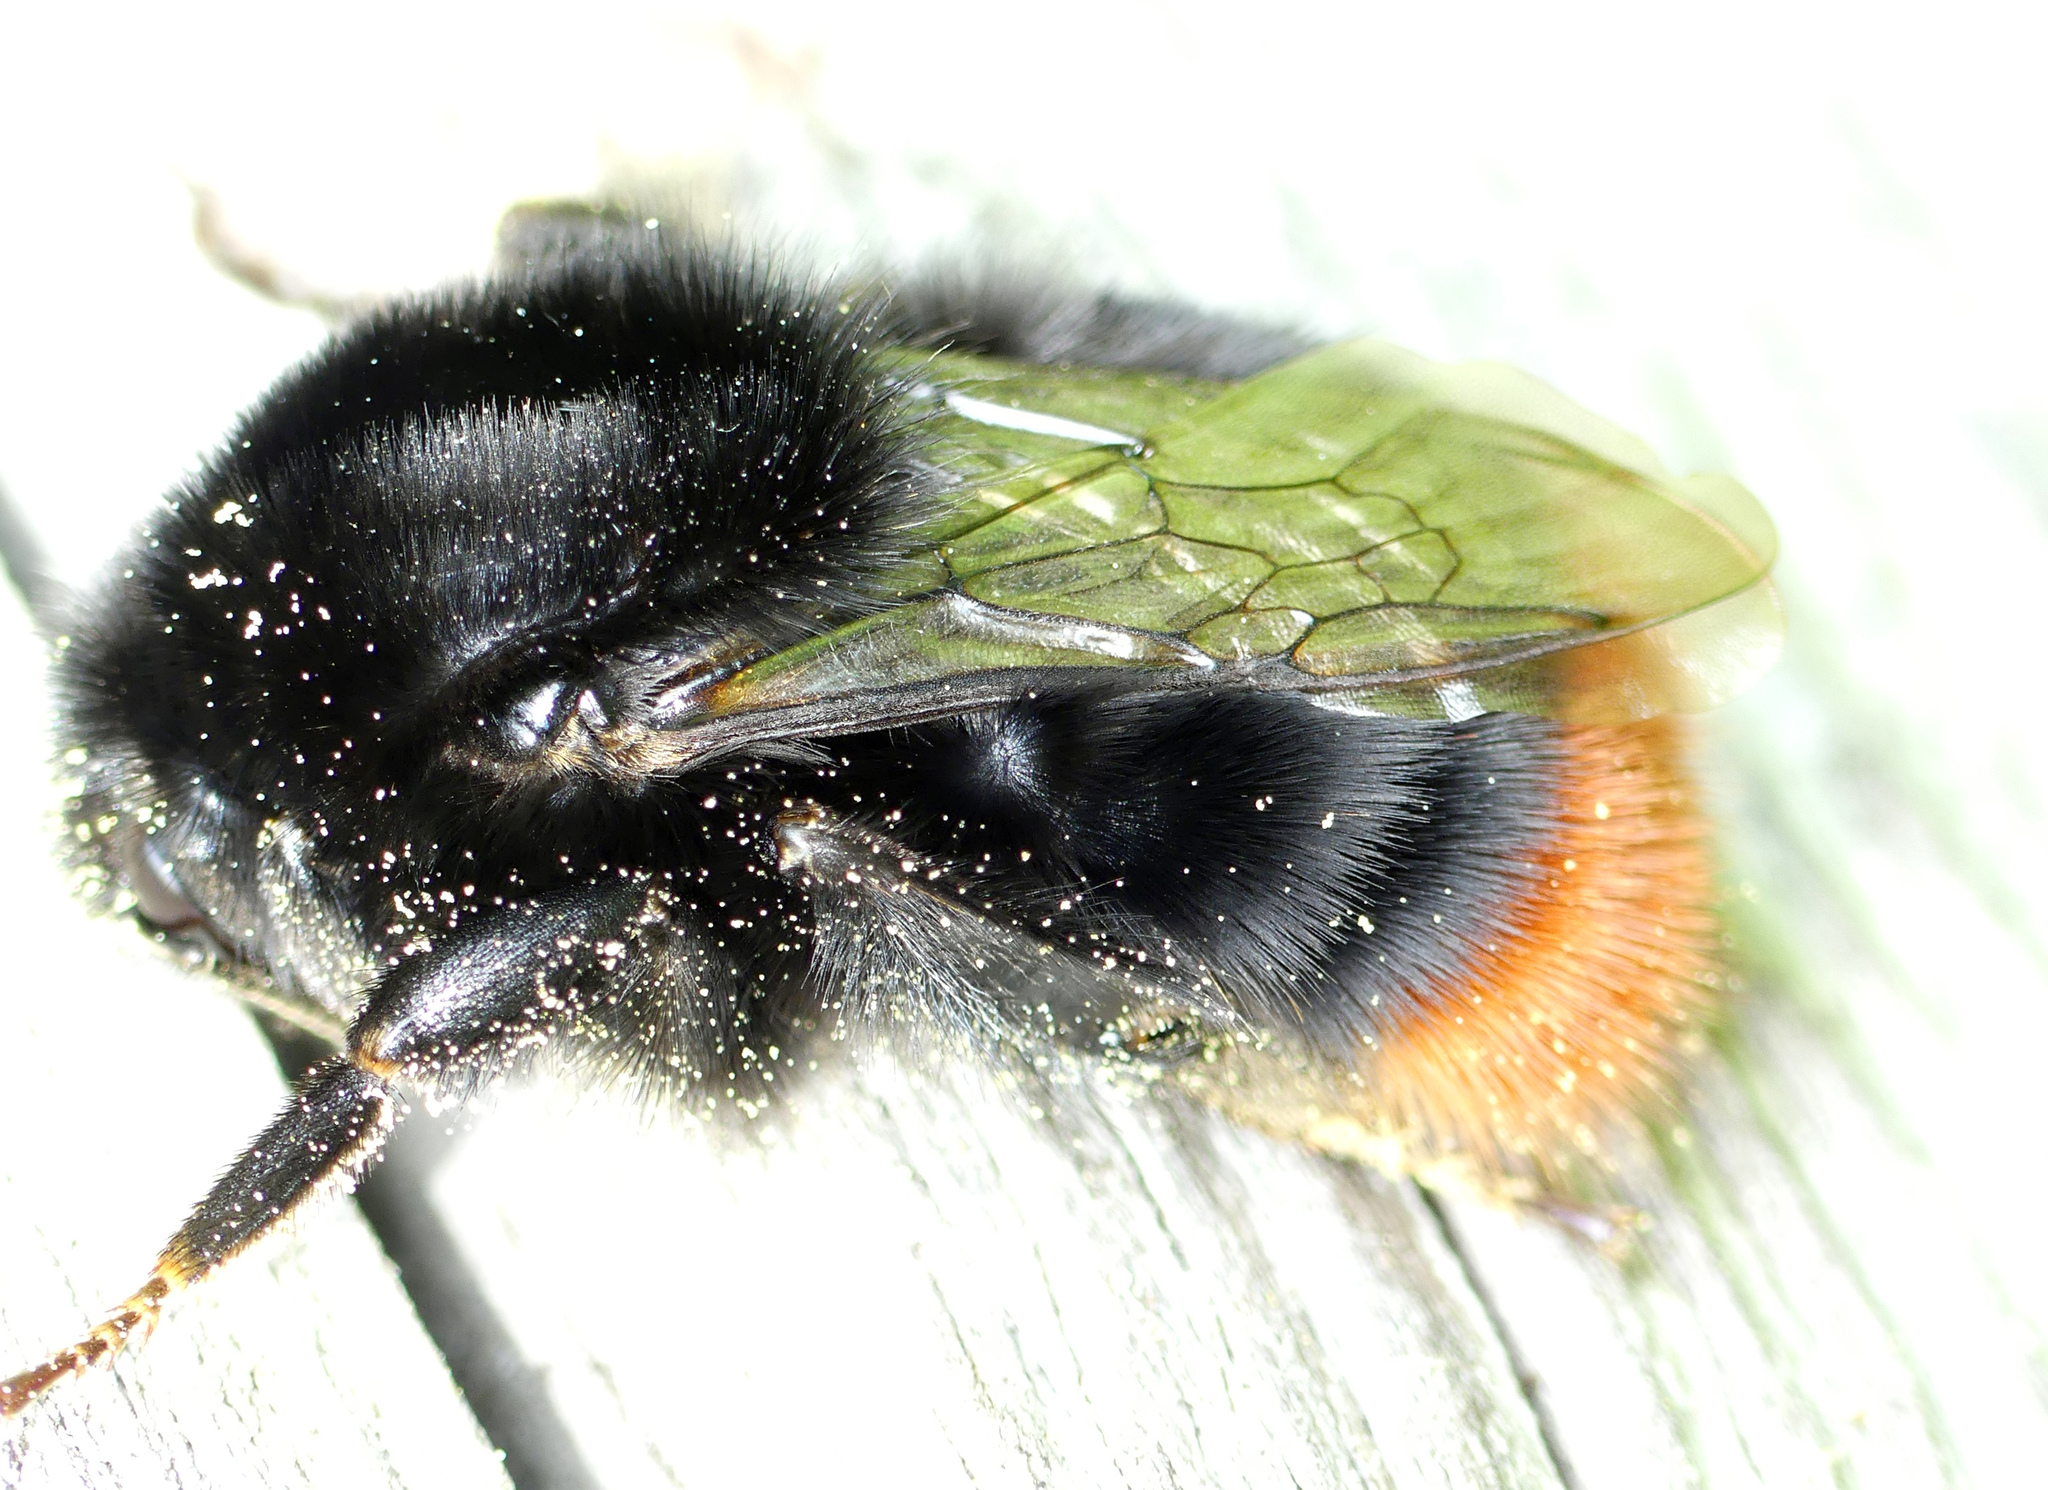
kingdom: Animalia
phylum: Arthropoda
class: Insecta
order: Hymenoptera
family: Apidae
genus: Bombus
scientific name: Bombus lapidarius
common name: Large red-tailed humble-bee
